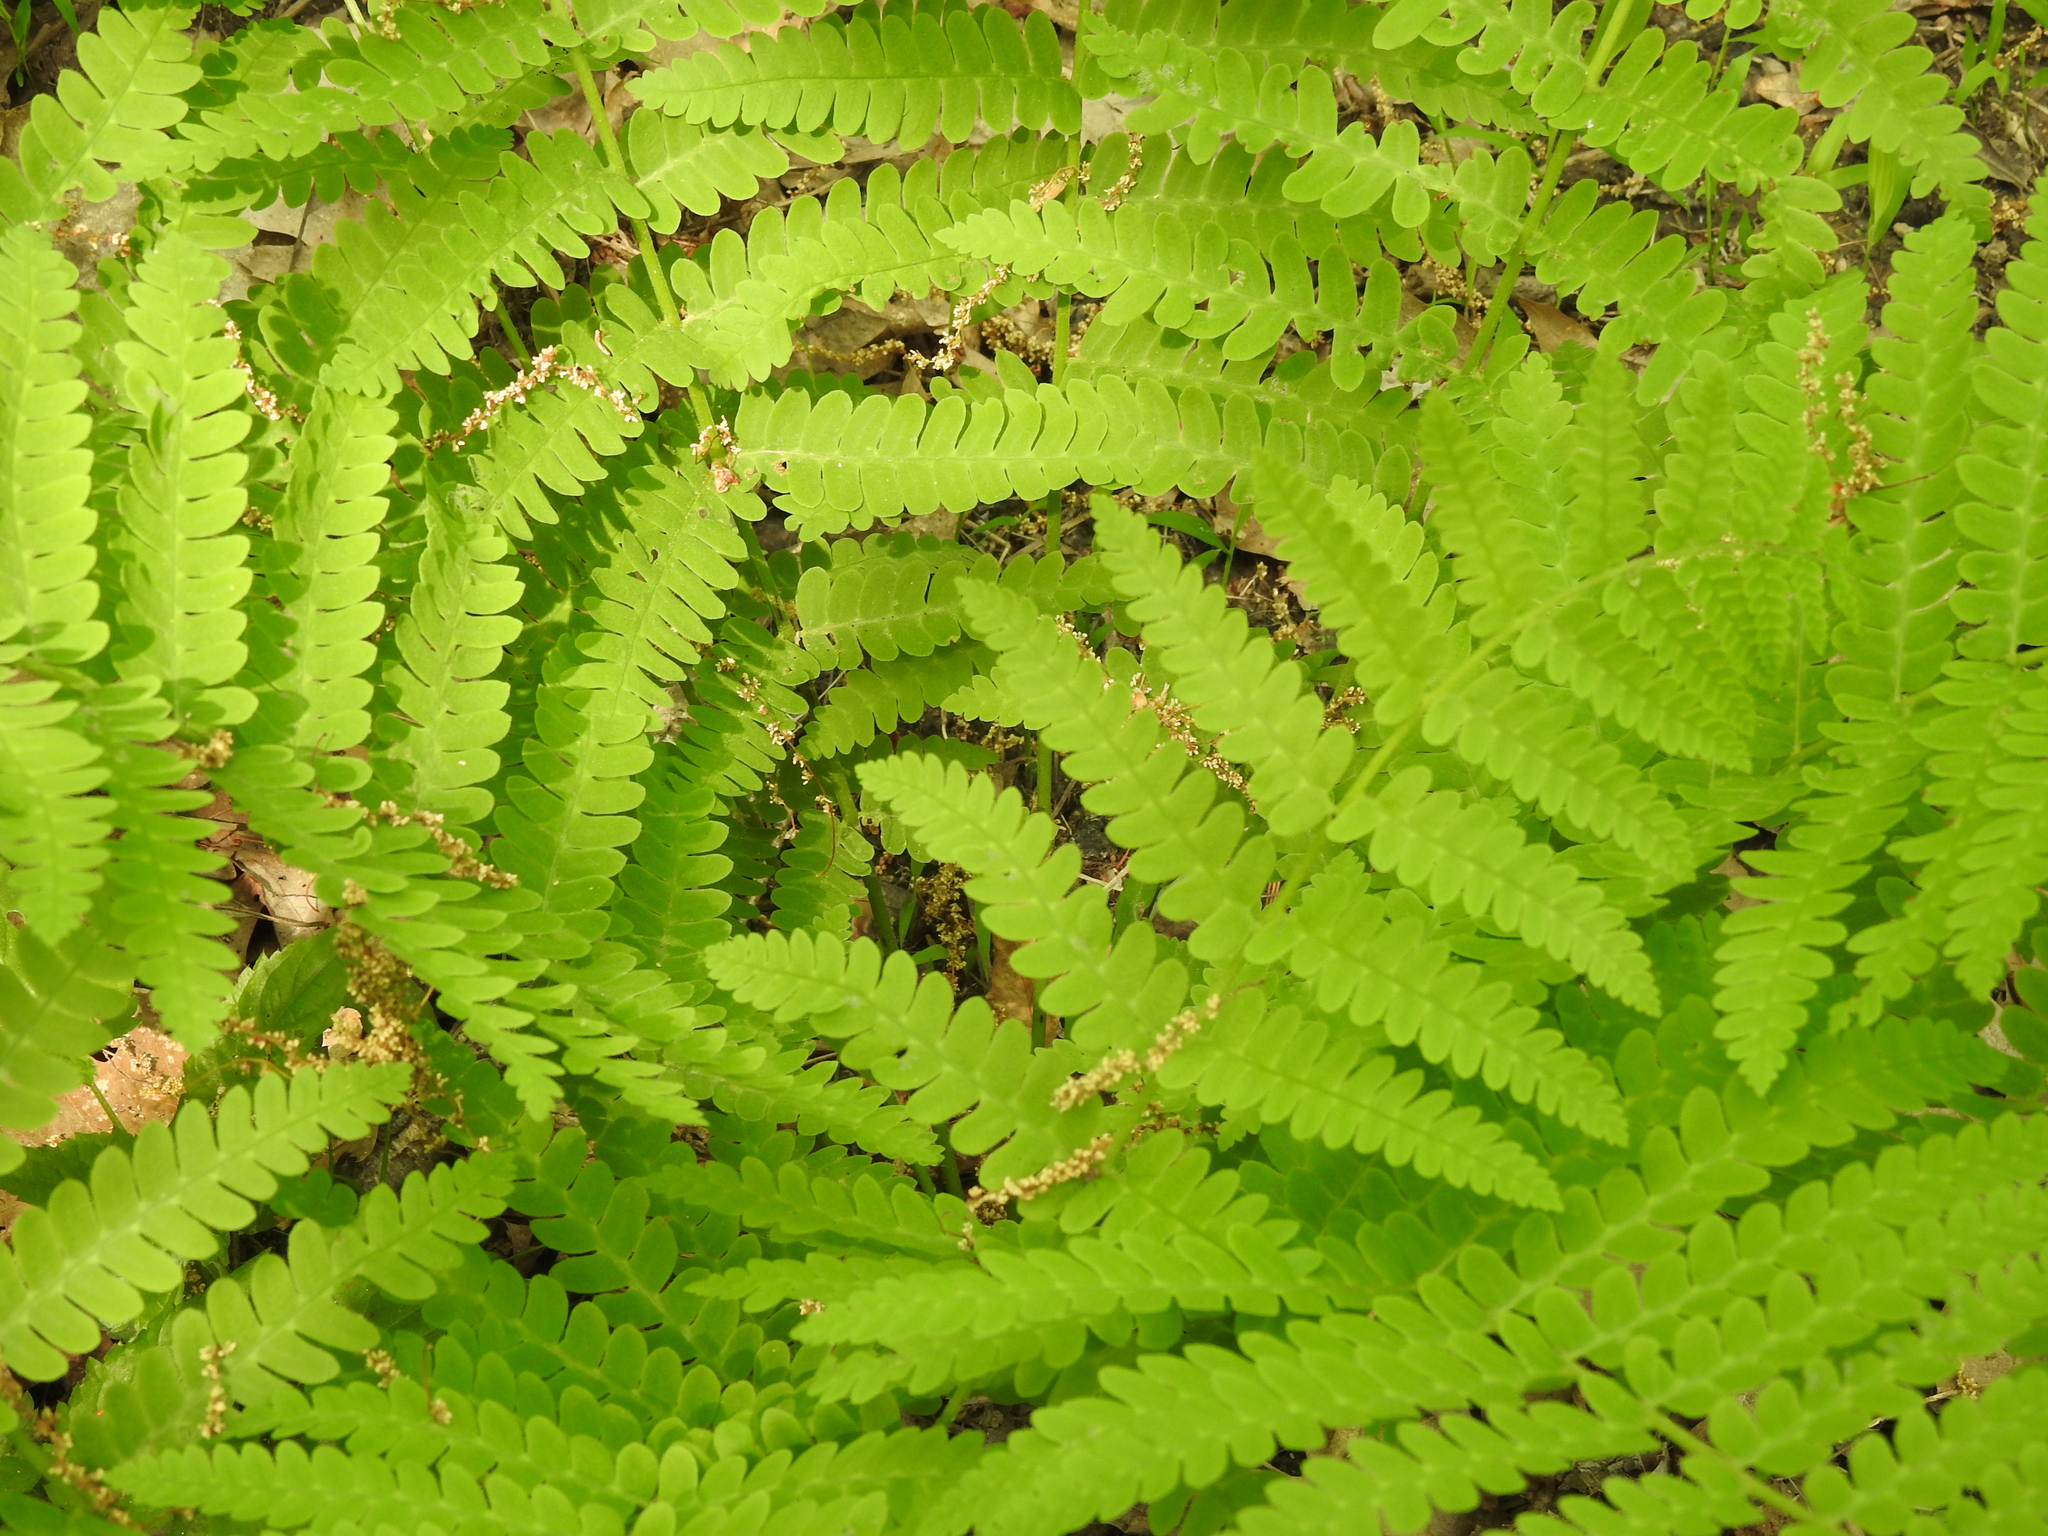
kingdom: Plantae
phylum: Tracheophyta
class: Polypodiopsida
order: Osmundales
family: Osmundaceae
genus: Claytosmunda
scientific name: Claytosmunda claytoniana
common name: Clayton's fern
